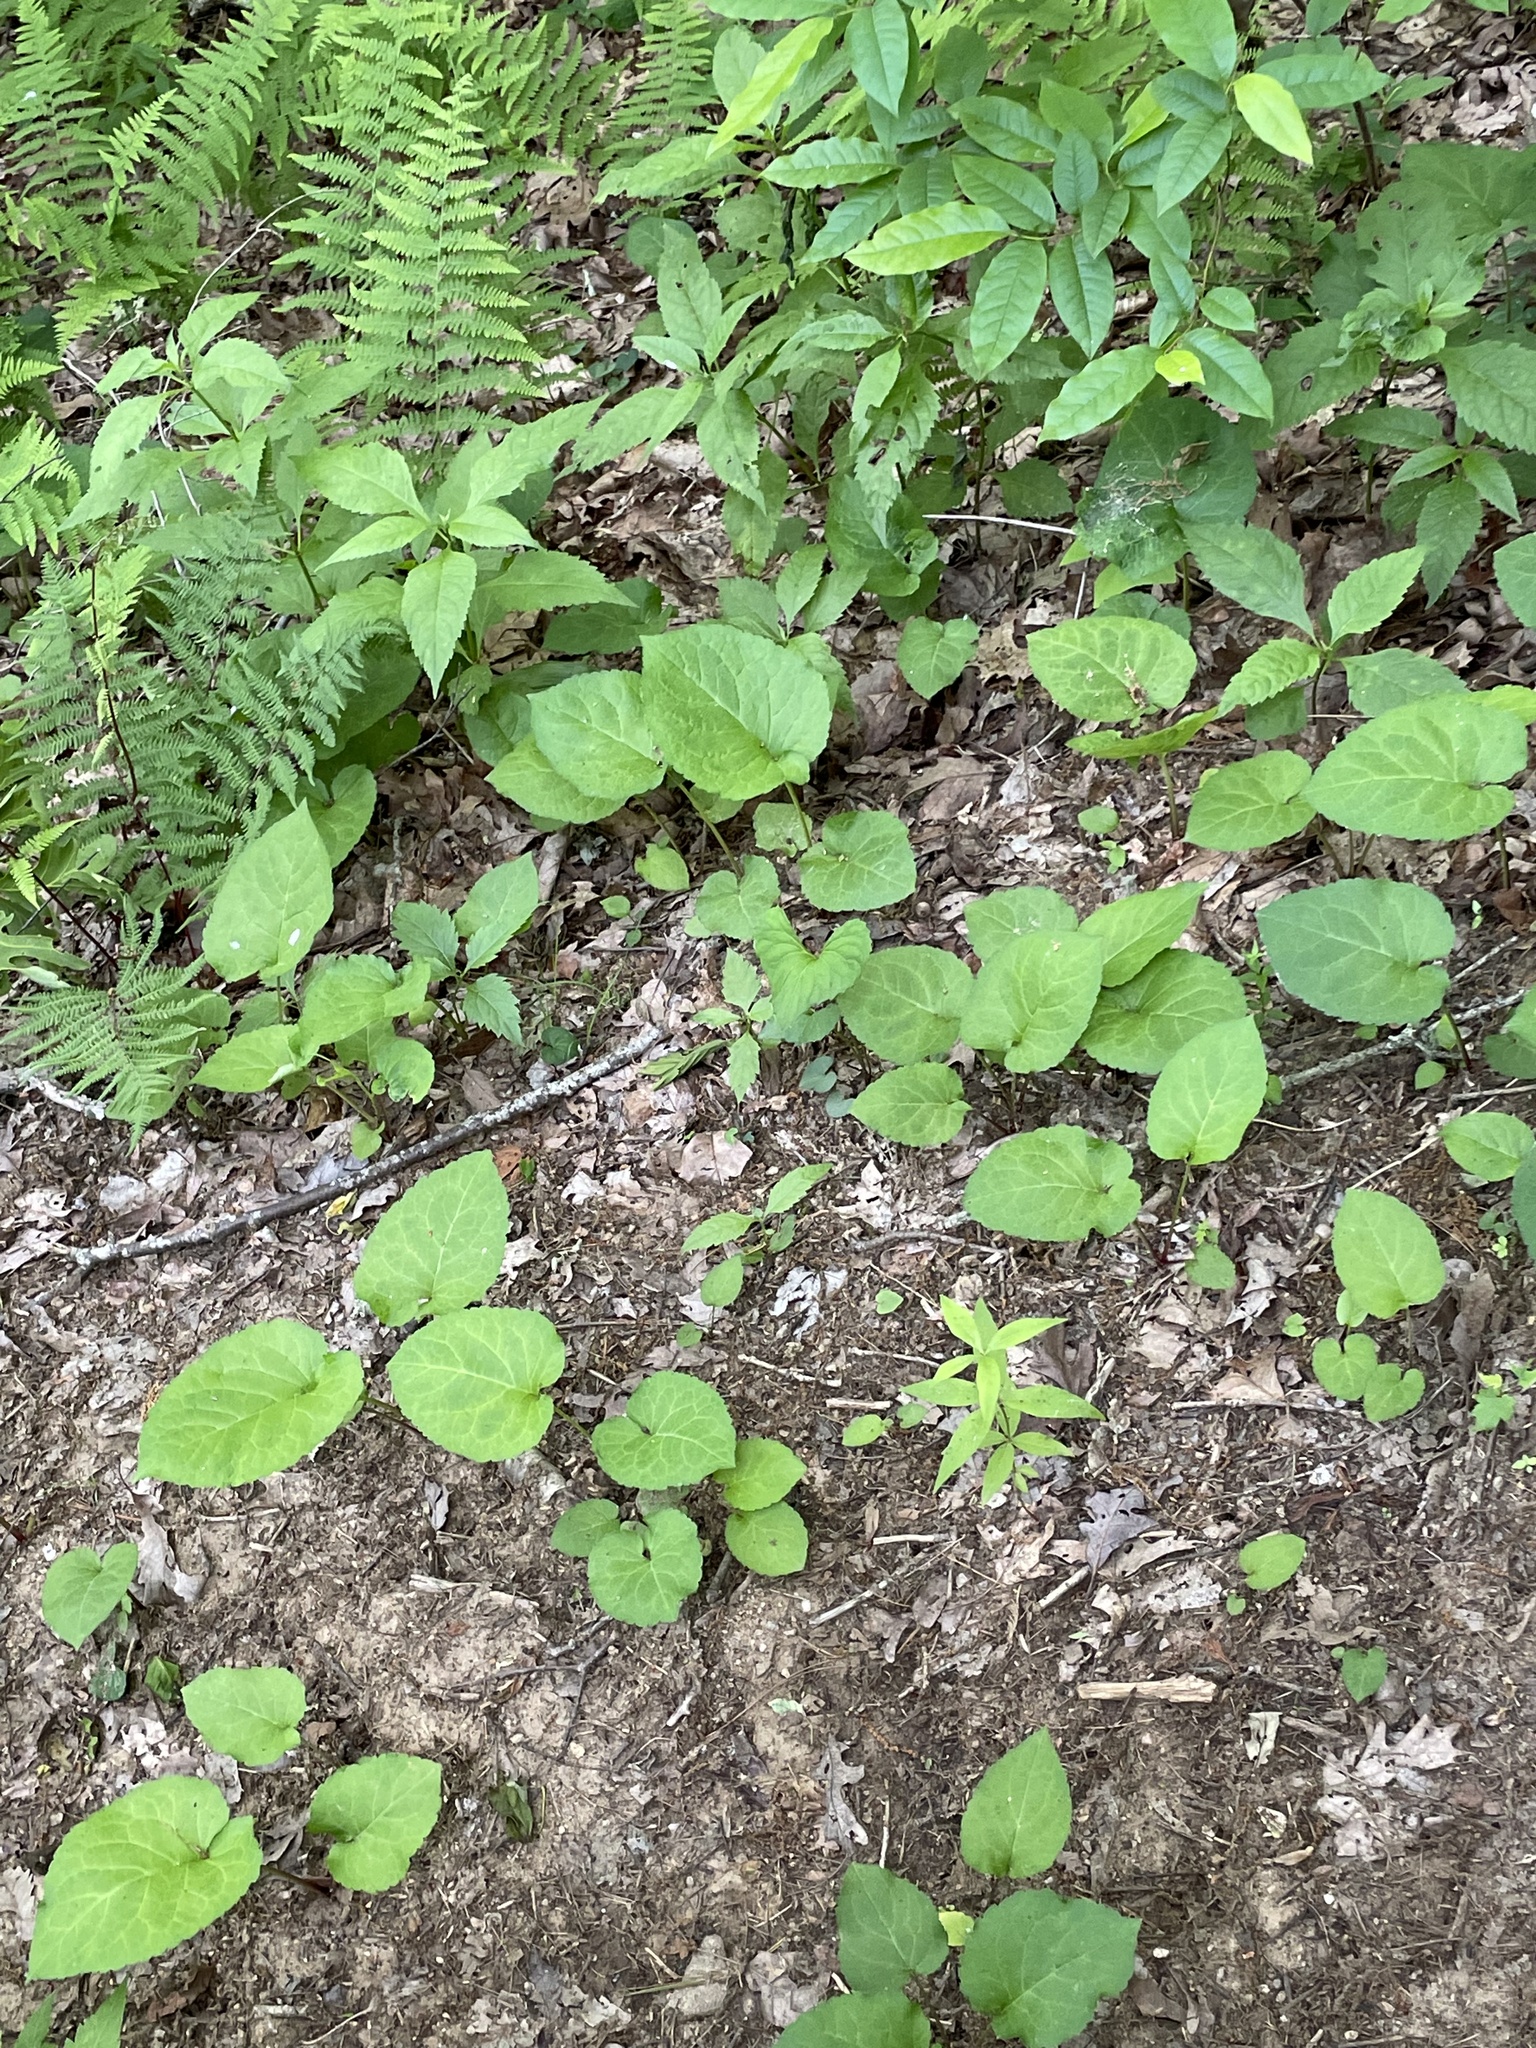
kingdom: Plantae
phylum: Tracheophyta
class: Magnoliopsida
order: Asterales
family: Asteraceae
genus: Eurybia
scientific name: Eurybia macrophylla
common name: Big-leaved aster
